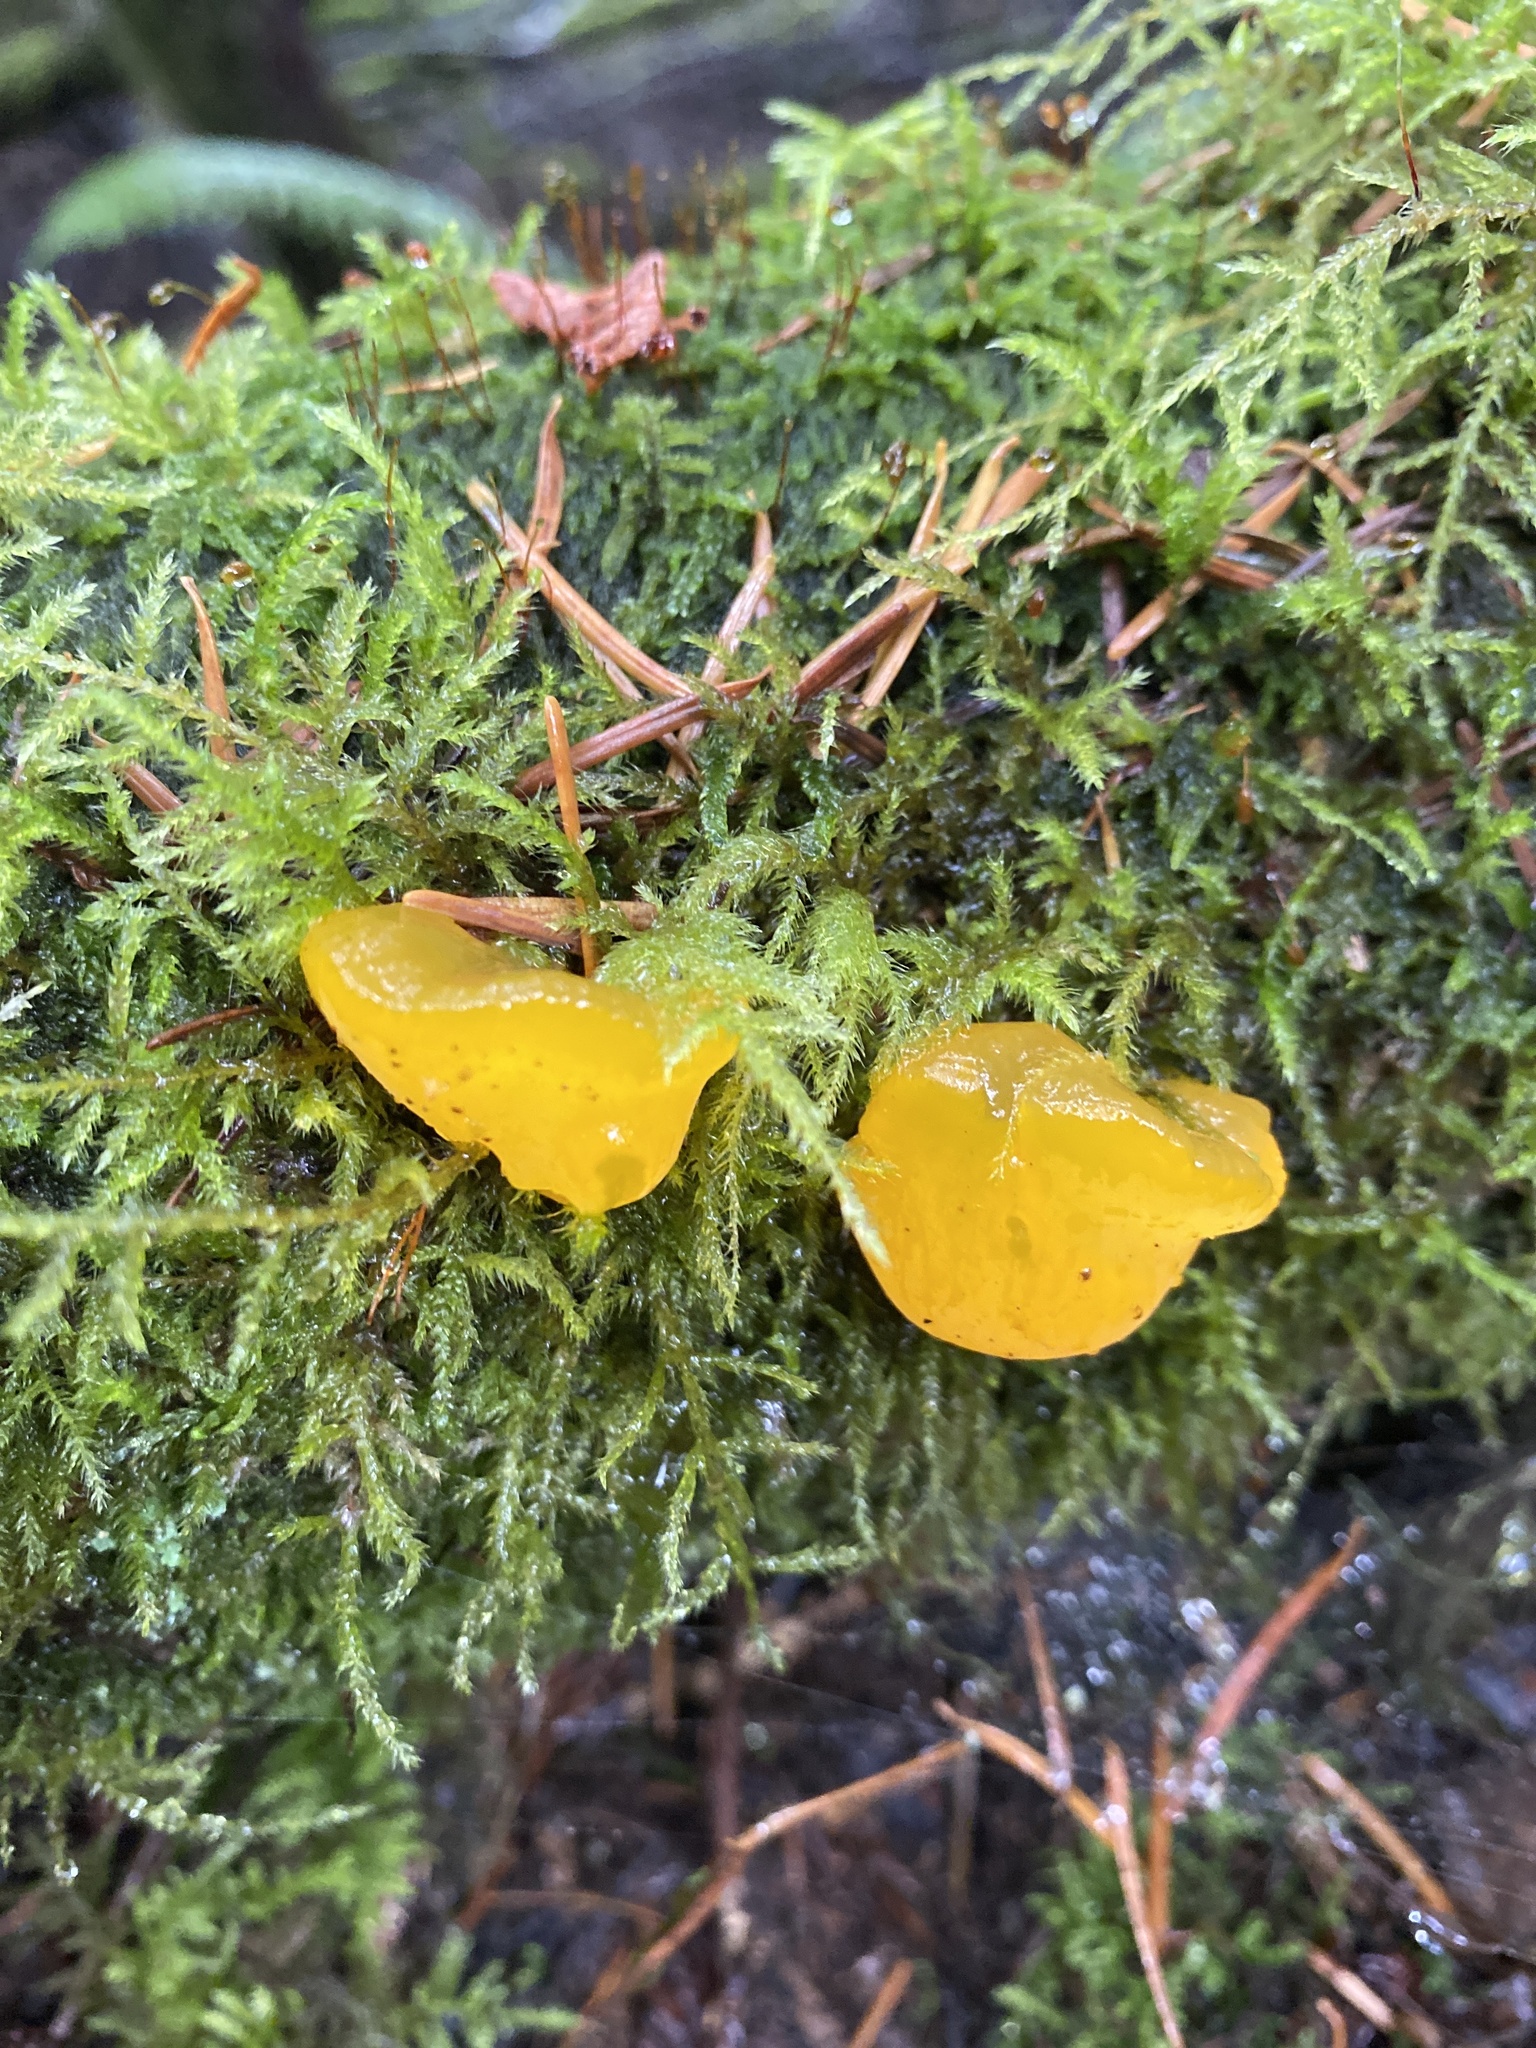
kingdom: Fungi
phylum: Basidiomycota
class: Dacrymycetes
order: Dacrymycetales
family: Dacrymycetaceae
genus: Dacrymyces
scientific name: Dacrymyces chrysospermus
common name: Orange jelly spot
